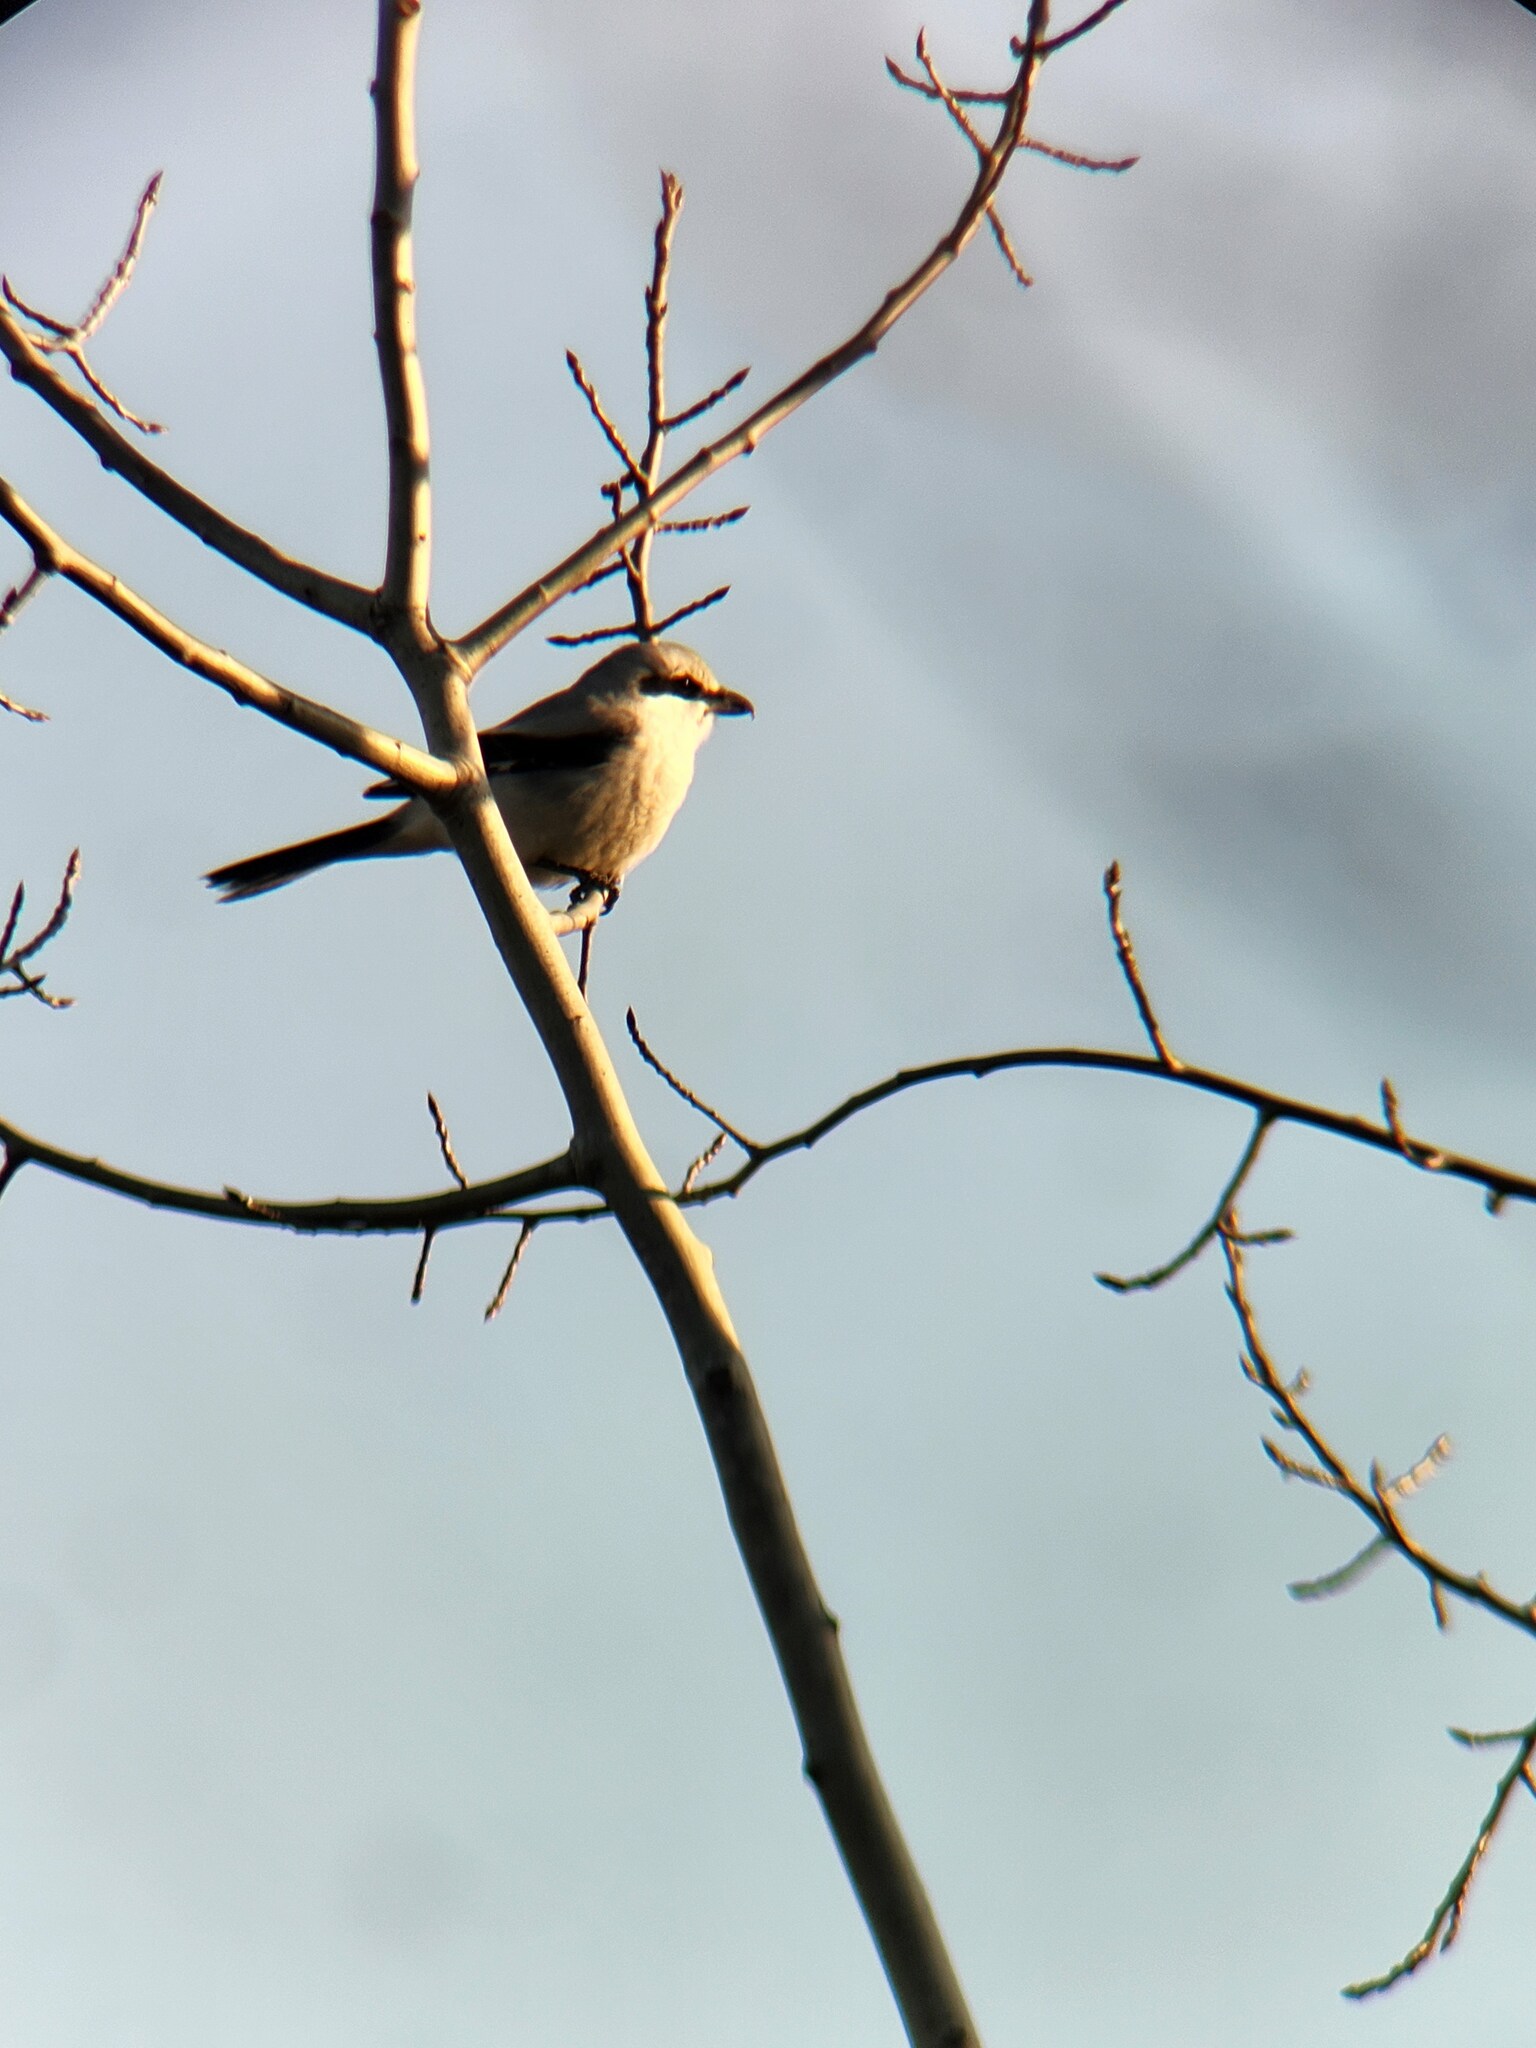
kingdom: Animalia
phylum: Chordata
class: Aves
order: Passeriformes
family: Laniidae
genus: Lanius
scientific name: Lanius borealis
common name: Northern shrike
